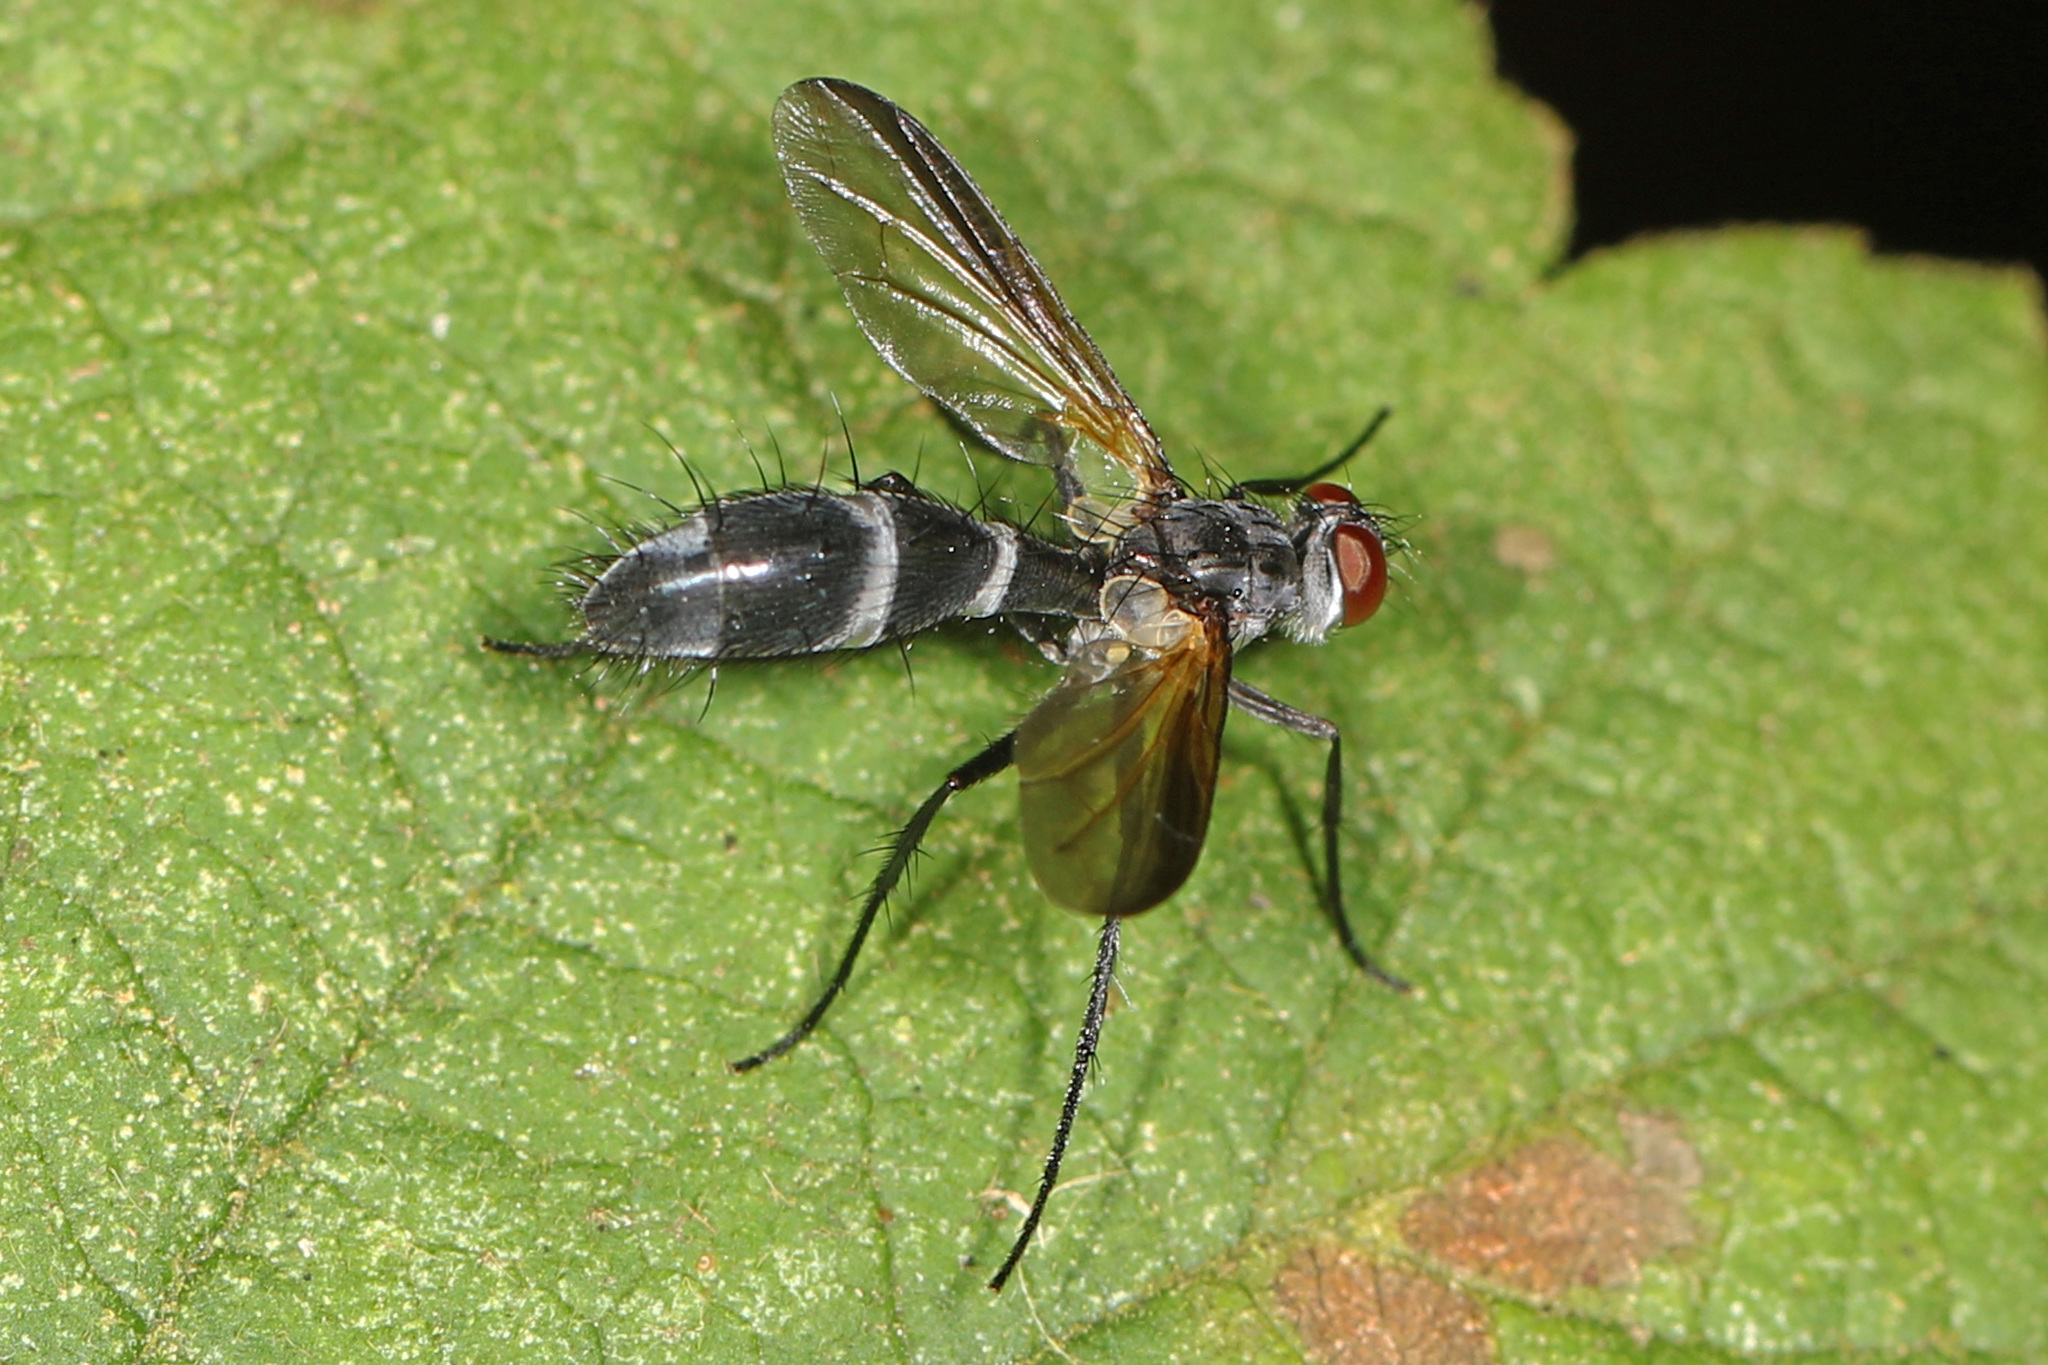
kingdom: Animalia
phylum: Arthropoda
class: Insecta
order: Diptera
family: Tachinidae
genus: Cordyligaster
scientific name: Cordyligaster septentrionalis
